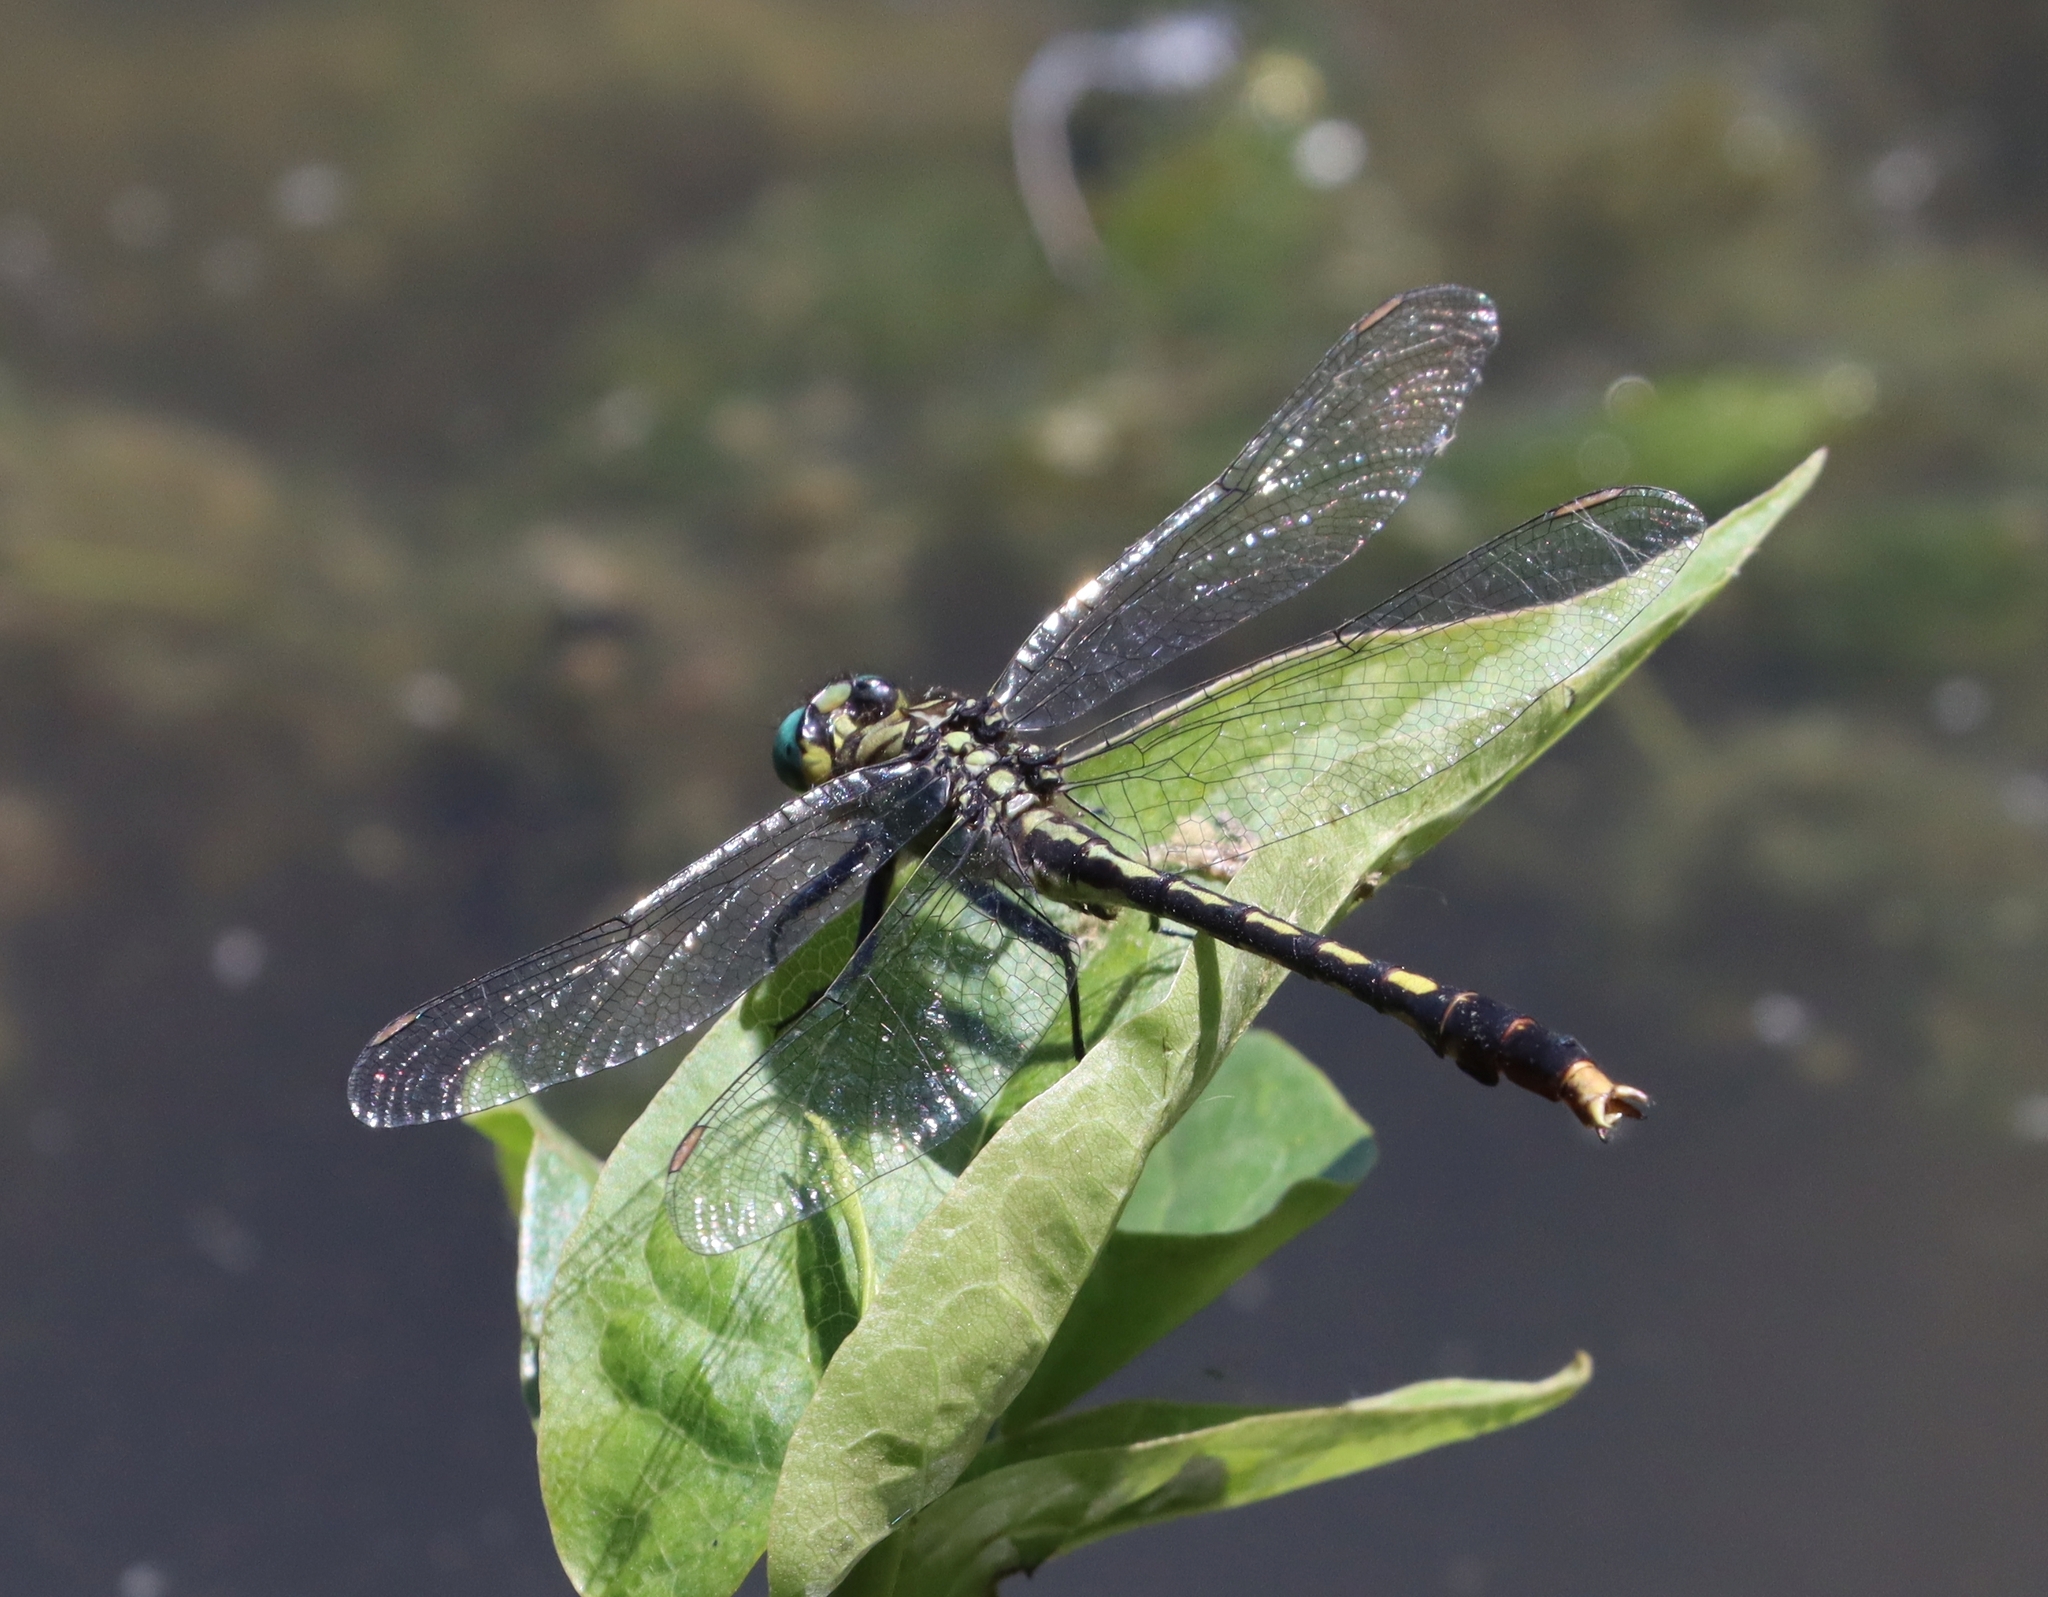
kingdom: Animalia
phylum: Arthropoda
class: Insecta
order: Odonata
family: Gomphidae
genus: Arigomphus
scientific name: Arigomphus villosipes
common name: Unicorn clubtail
